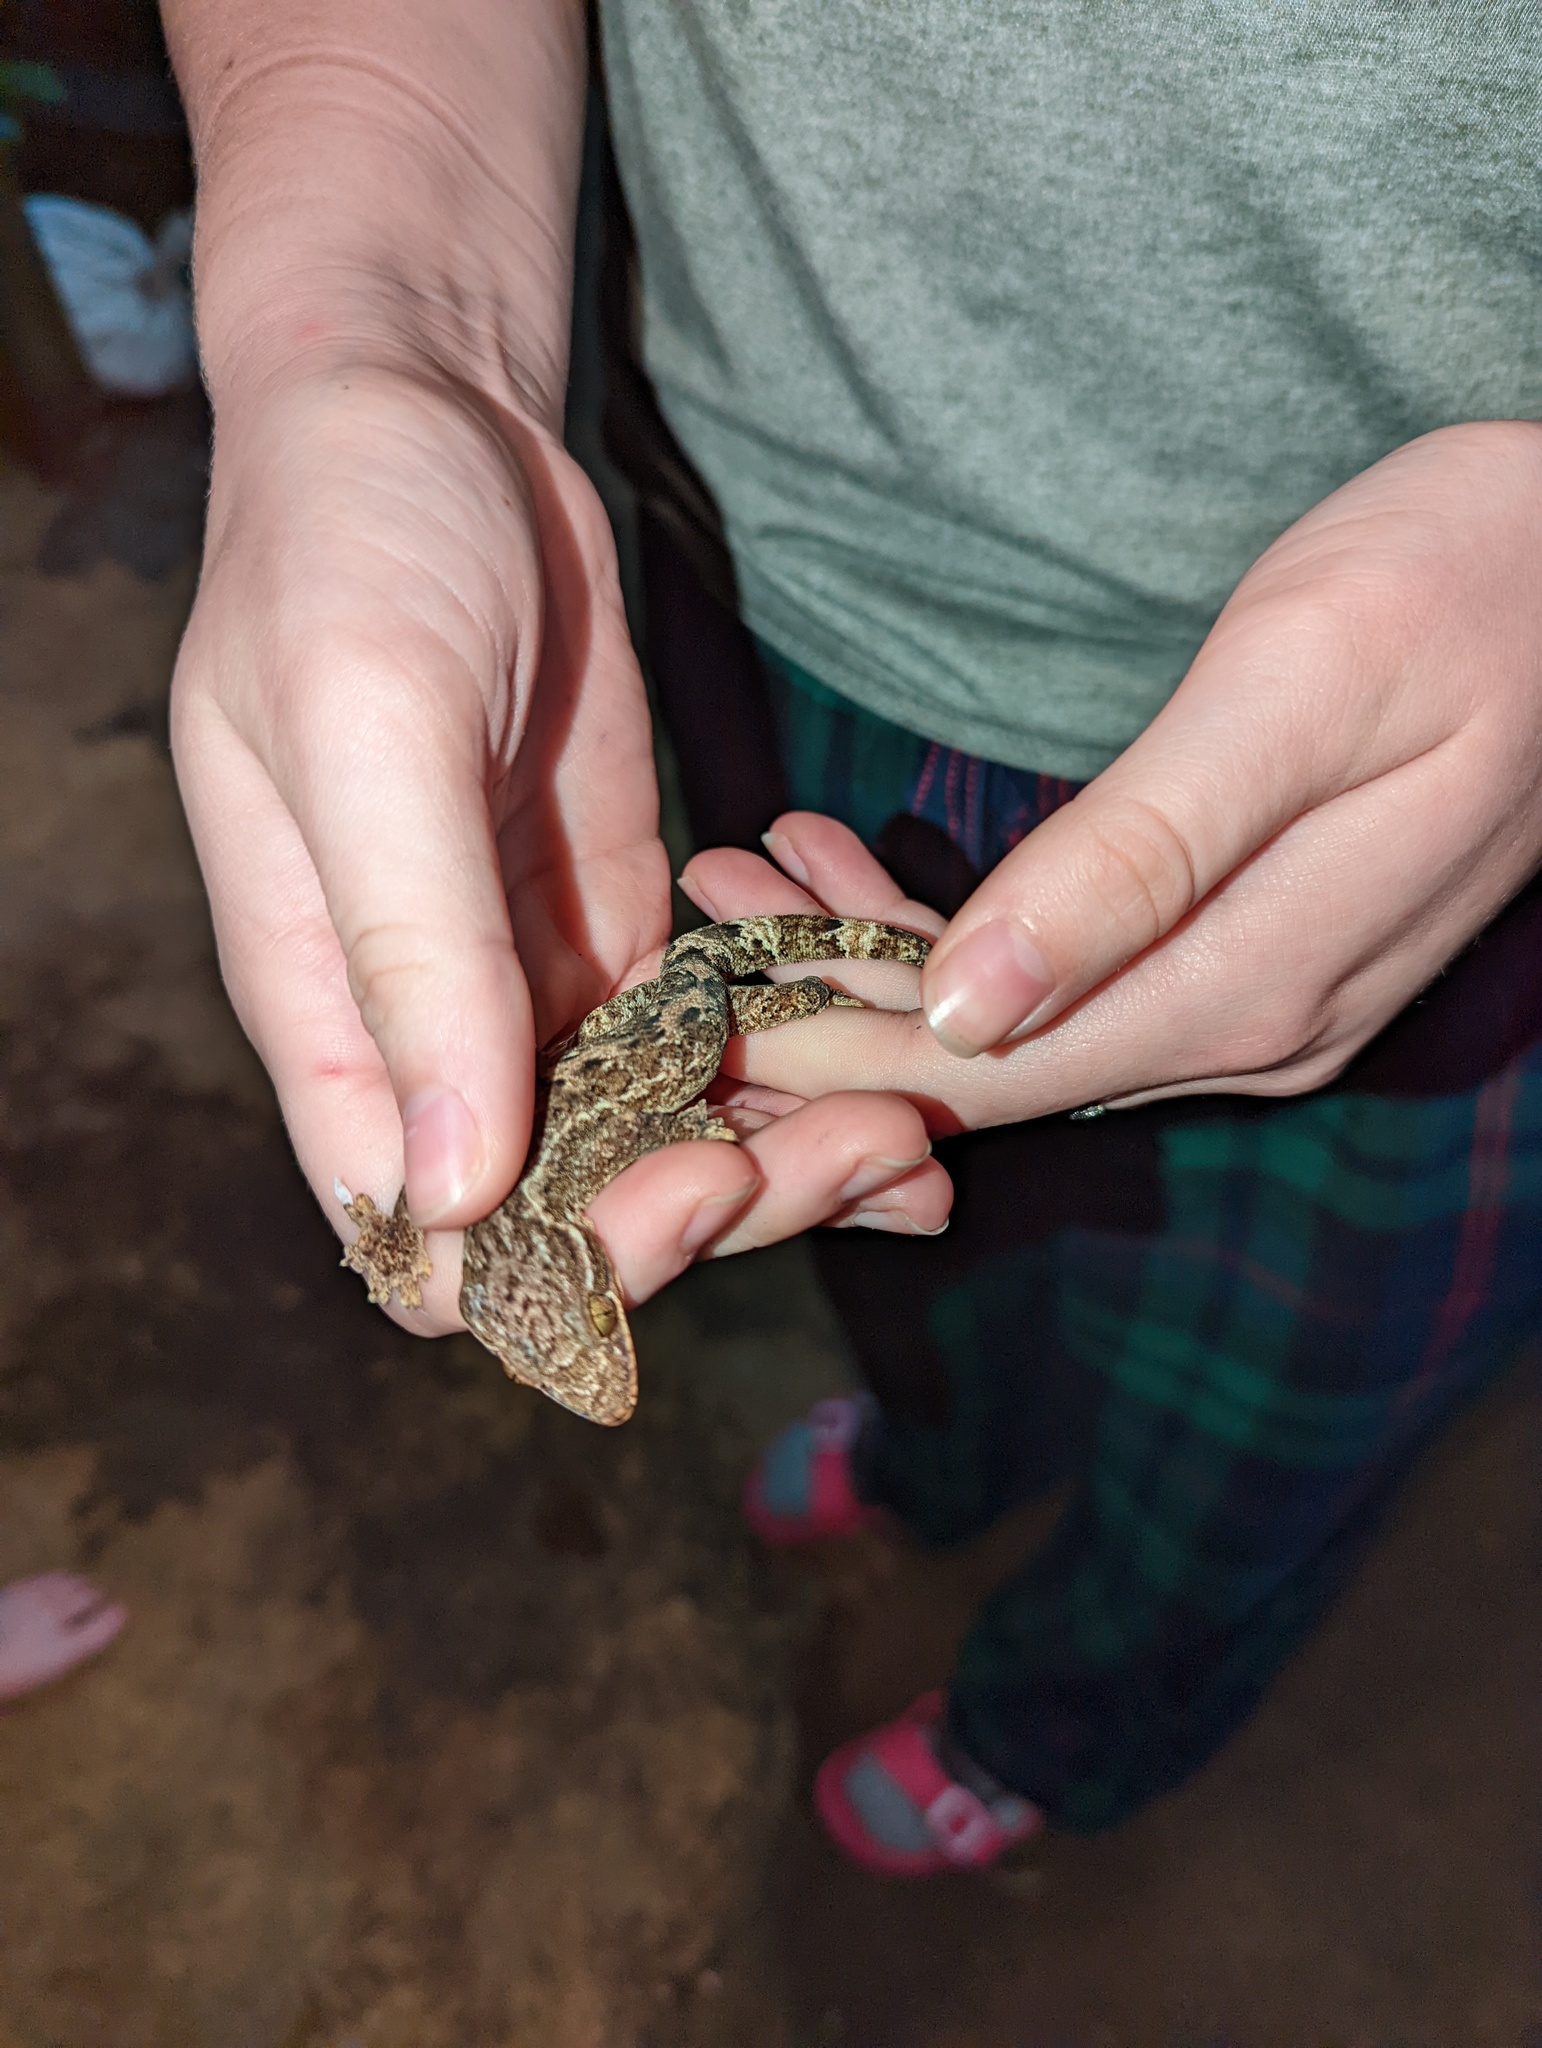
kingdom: Animalia
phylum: Chordata
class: Squamata
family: Phyllodactylidae
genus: Thecadactylus
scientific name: Thecadactylus rapicauda
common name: Turnip-tailed gecko
